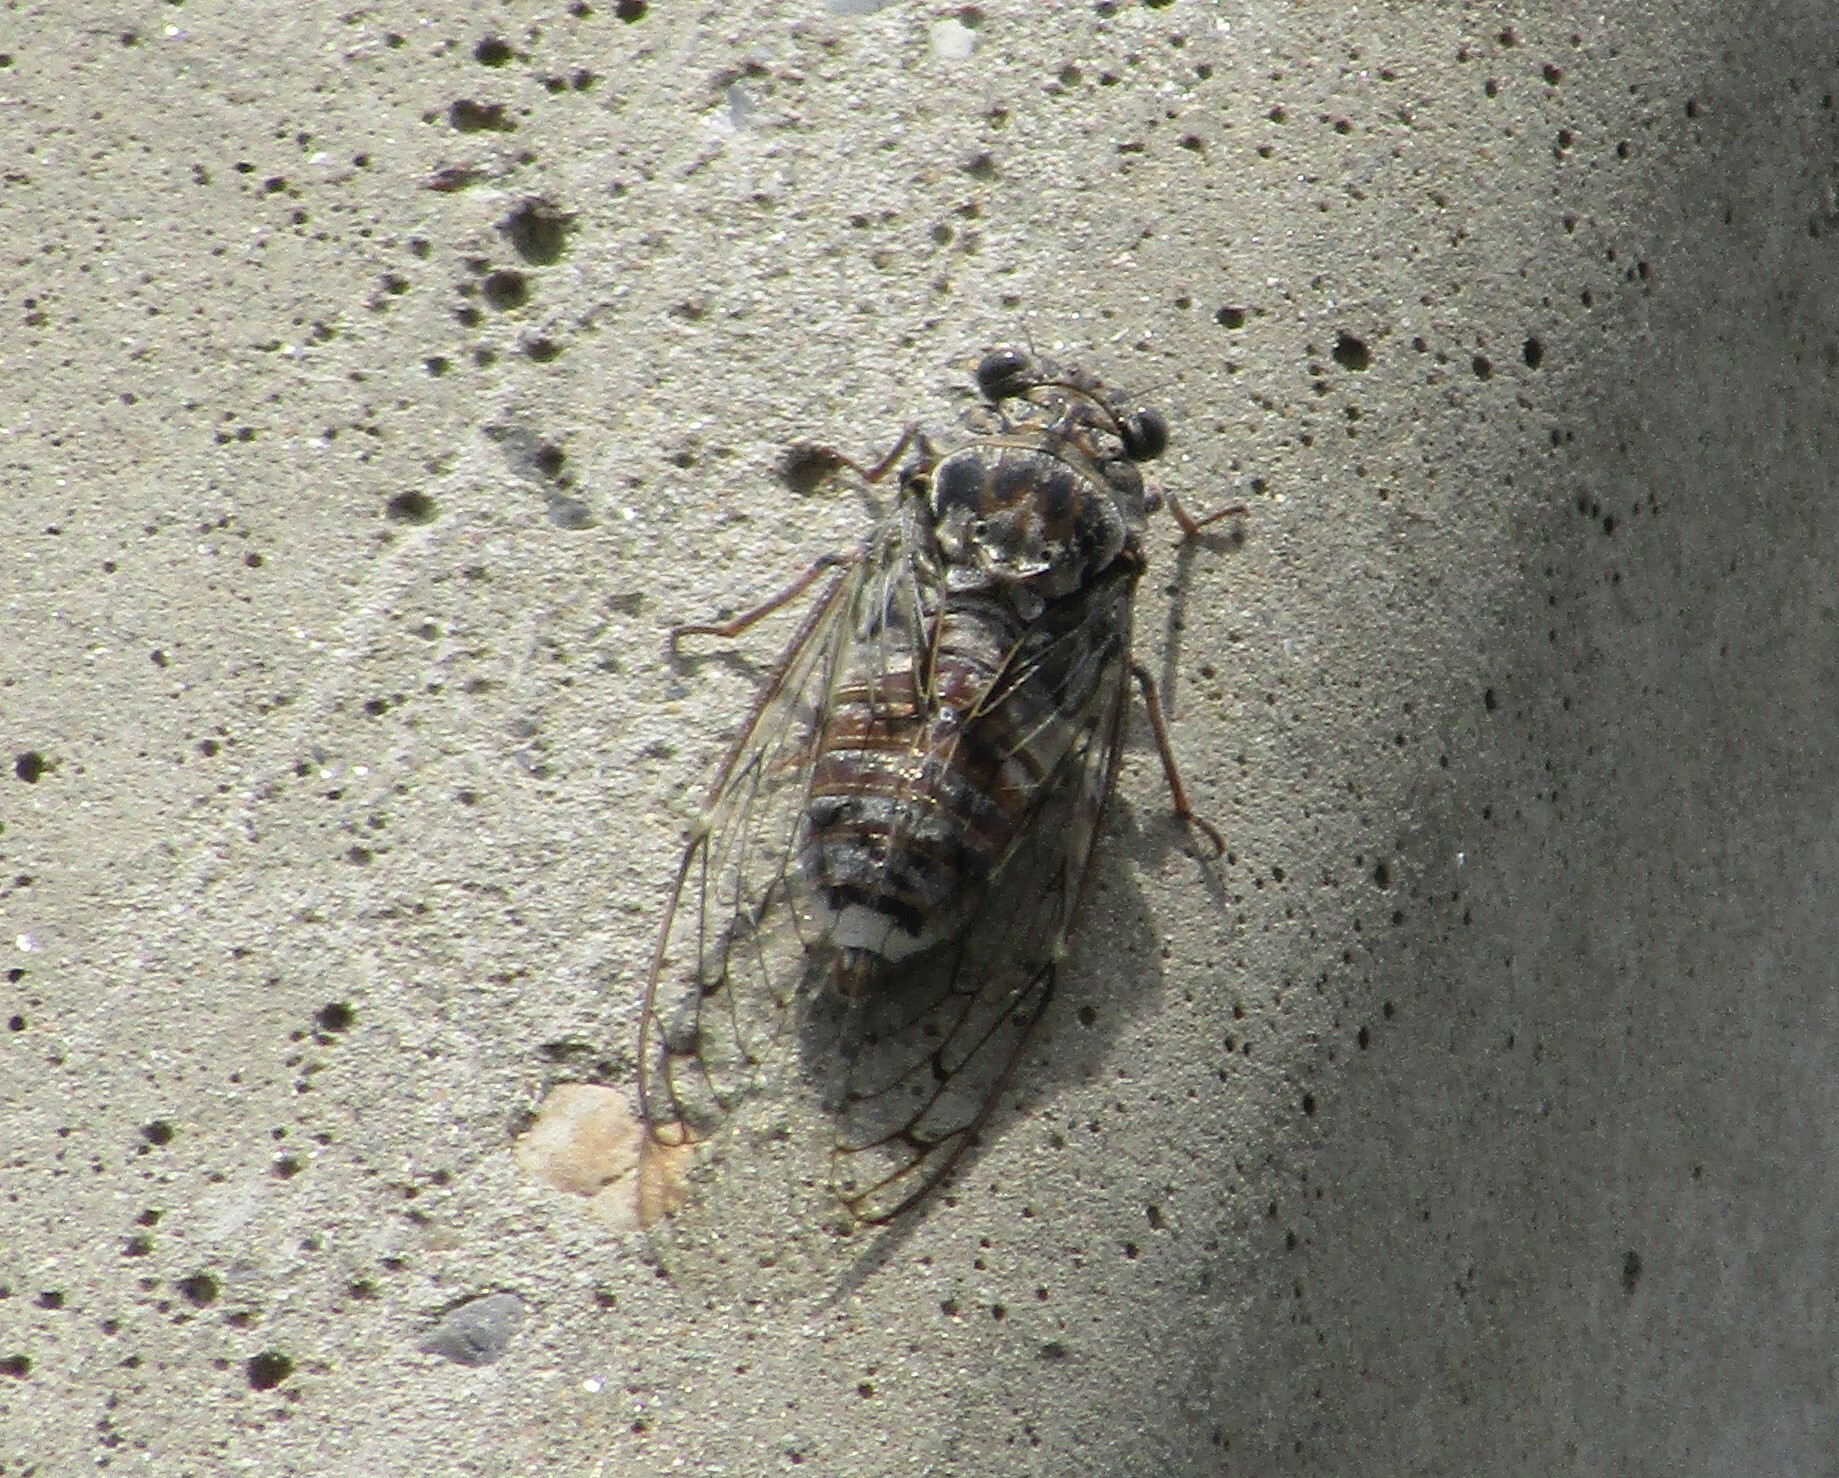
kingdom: Animalia
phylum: Arthropoda
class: Insecta
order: Hemiptera
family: Cicadidae
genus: Cicada
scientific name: Cicada orni
